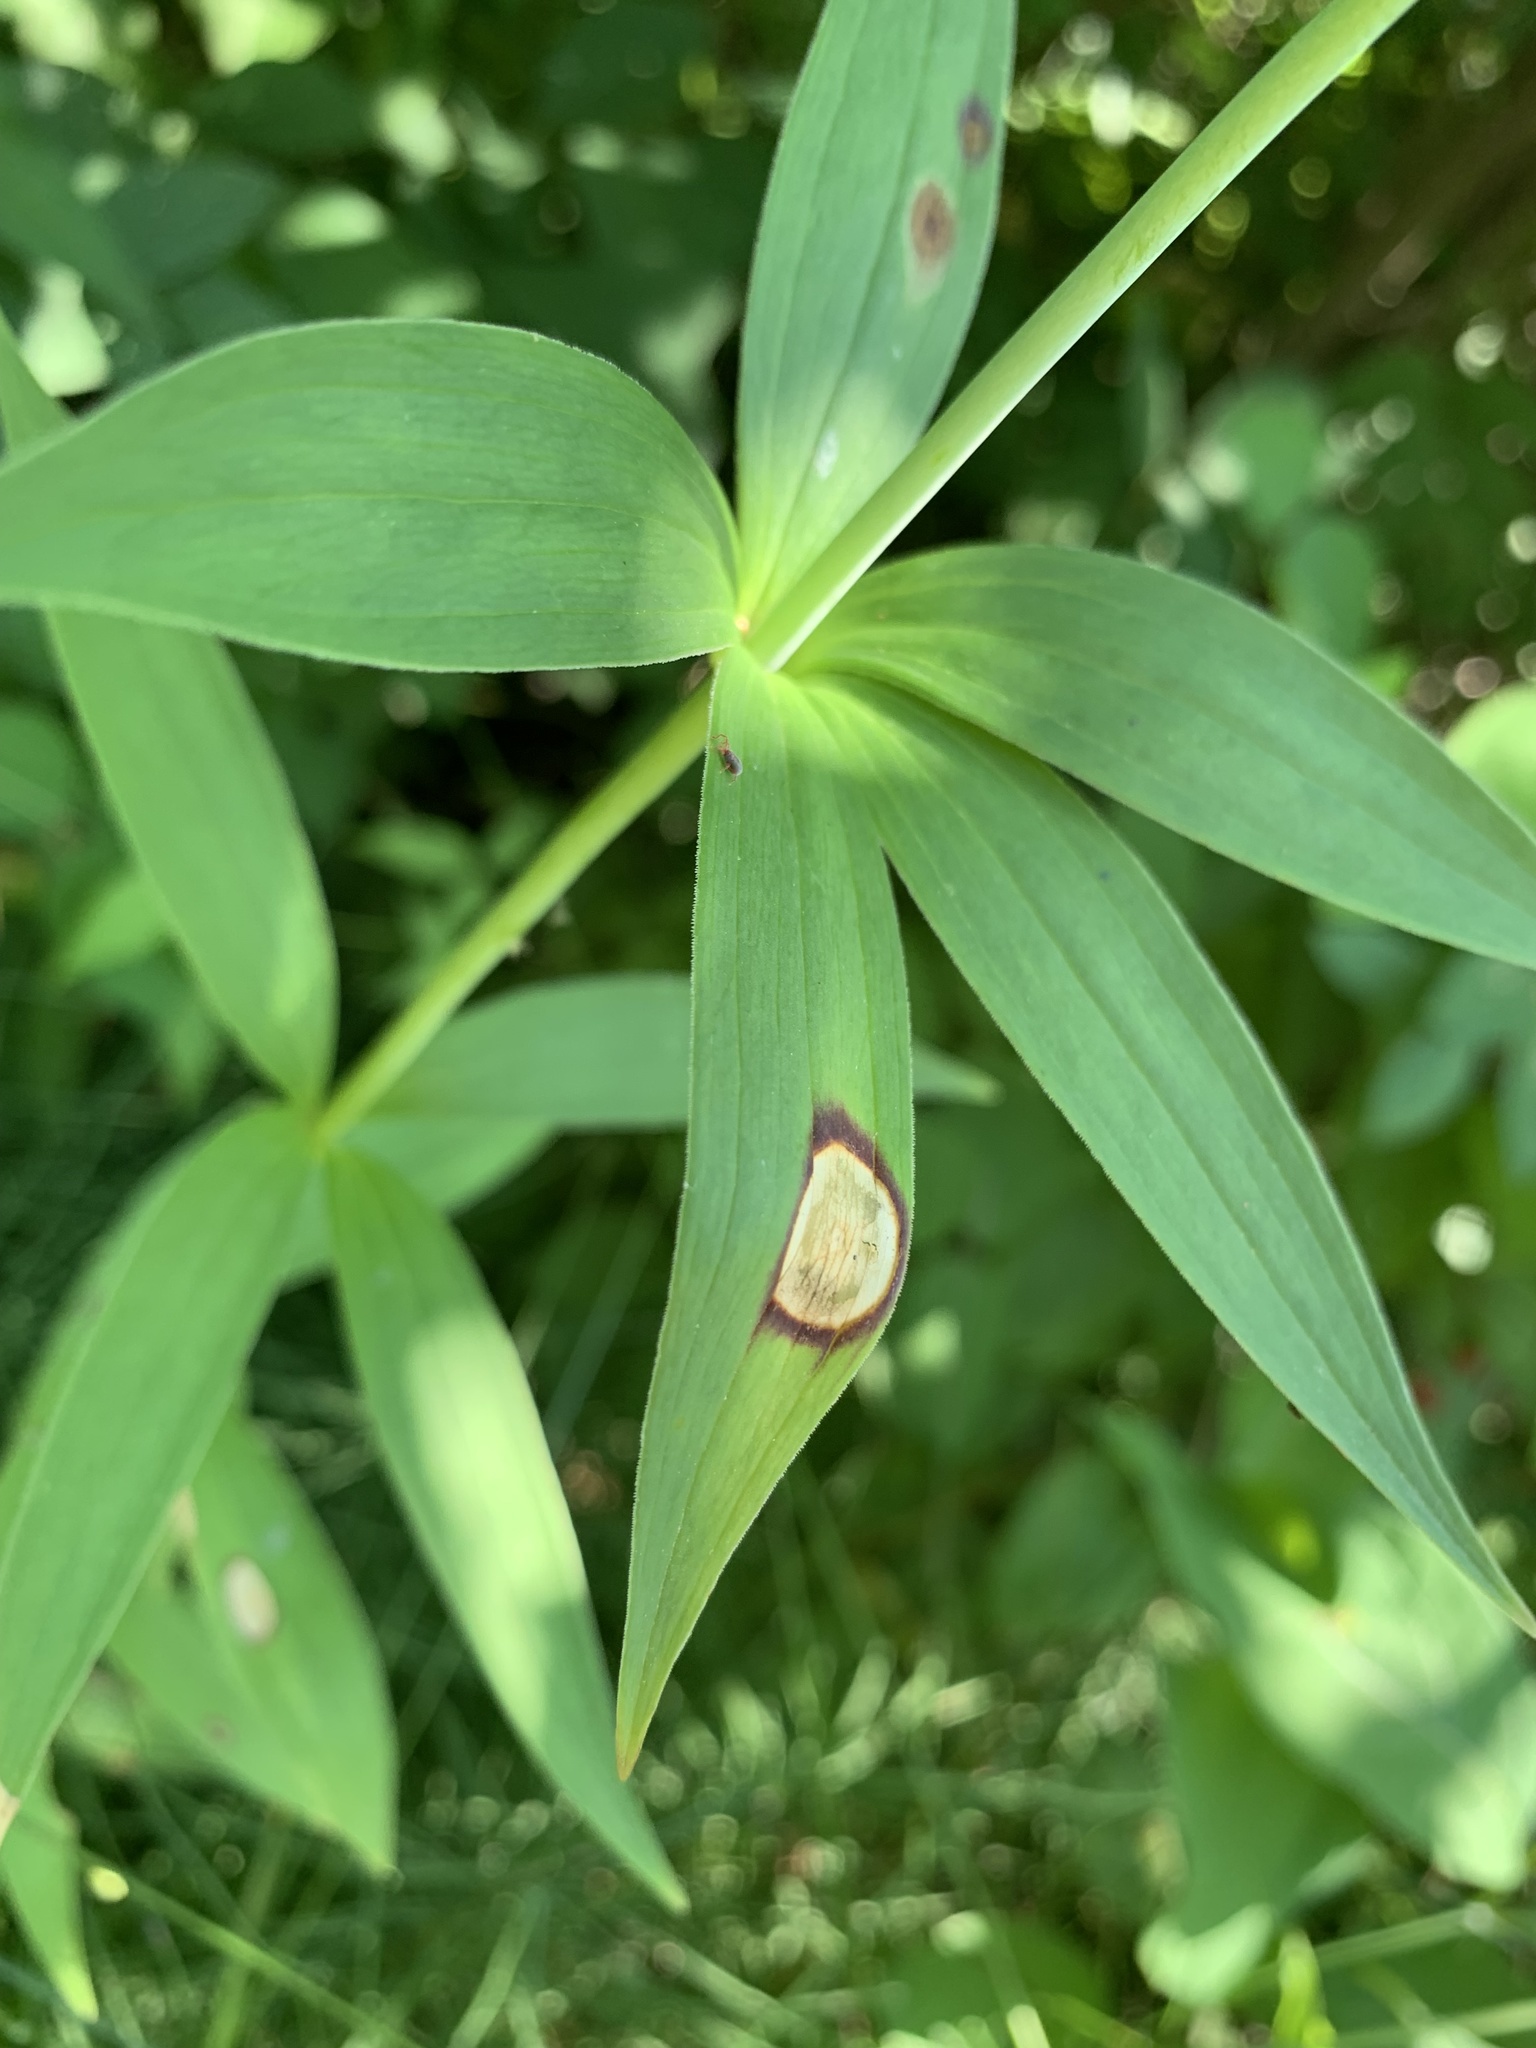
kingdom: Fungi
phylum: Ascomycota
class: Leotiomycetes
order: Helotiales
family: Sclerotiniaceae
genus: Botrytis
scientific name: Botrytis elliptica
